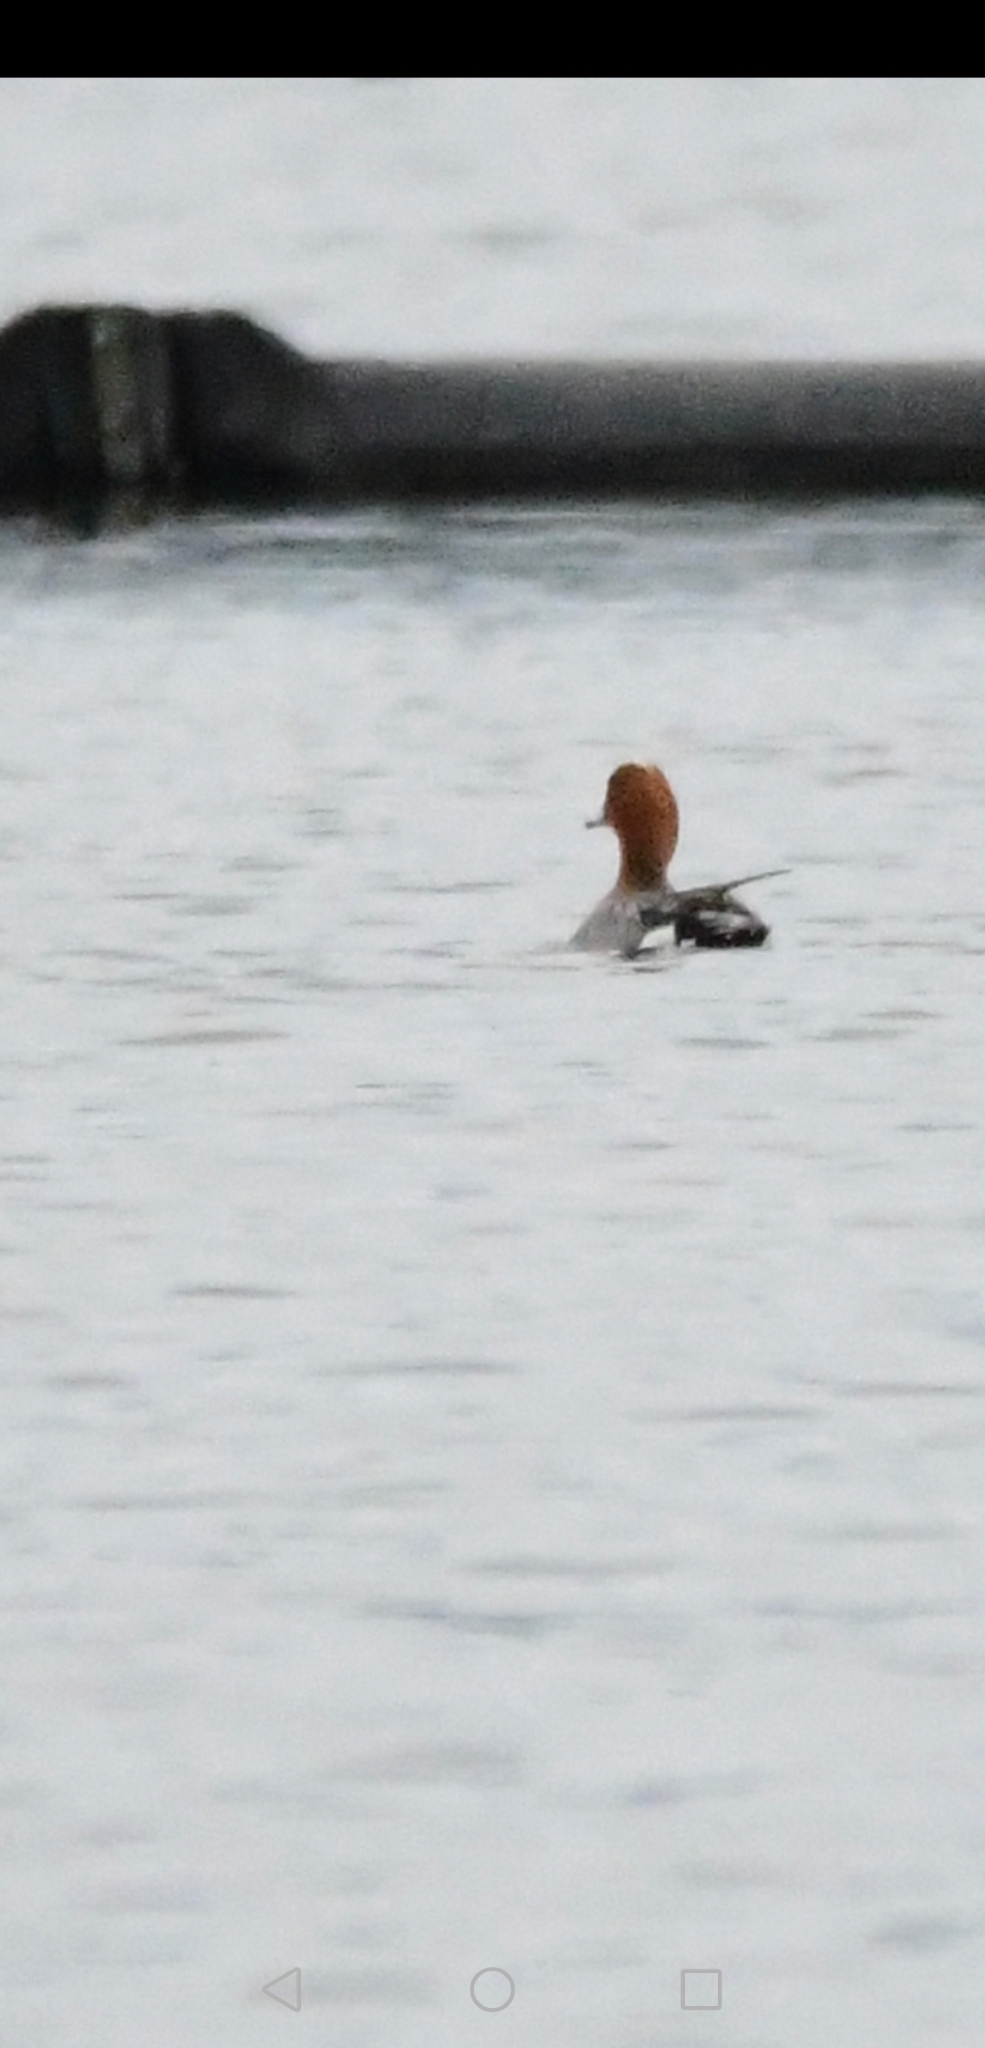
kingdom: Animalia
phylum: Chordata
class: Aves
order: Anseriformes
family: Anatidae
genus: Mareca
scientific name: Mareca penelope
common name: Eurasian wigeon
